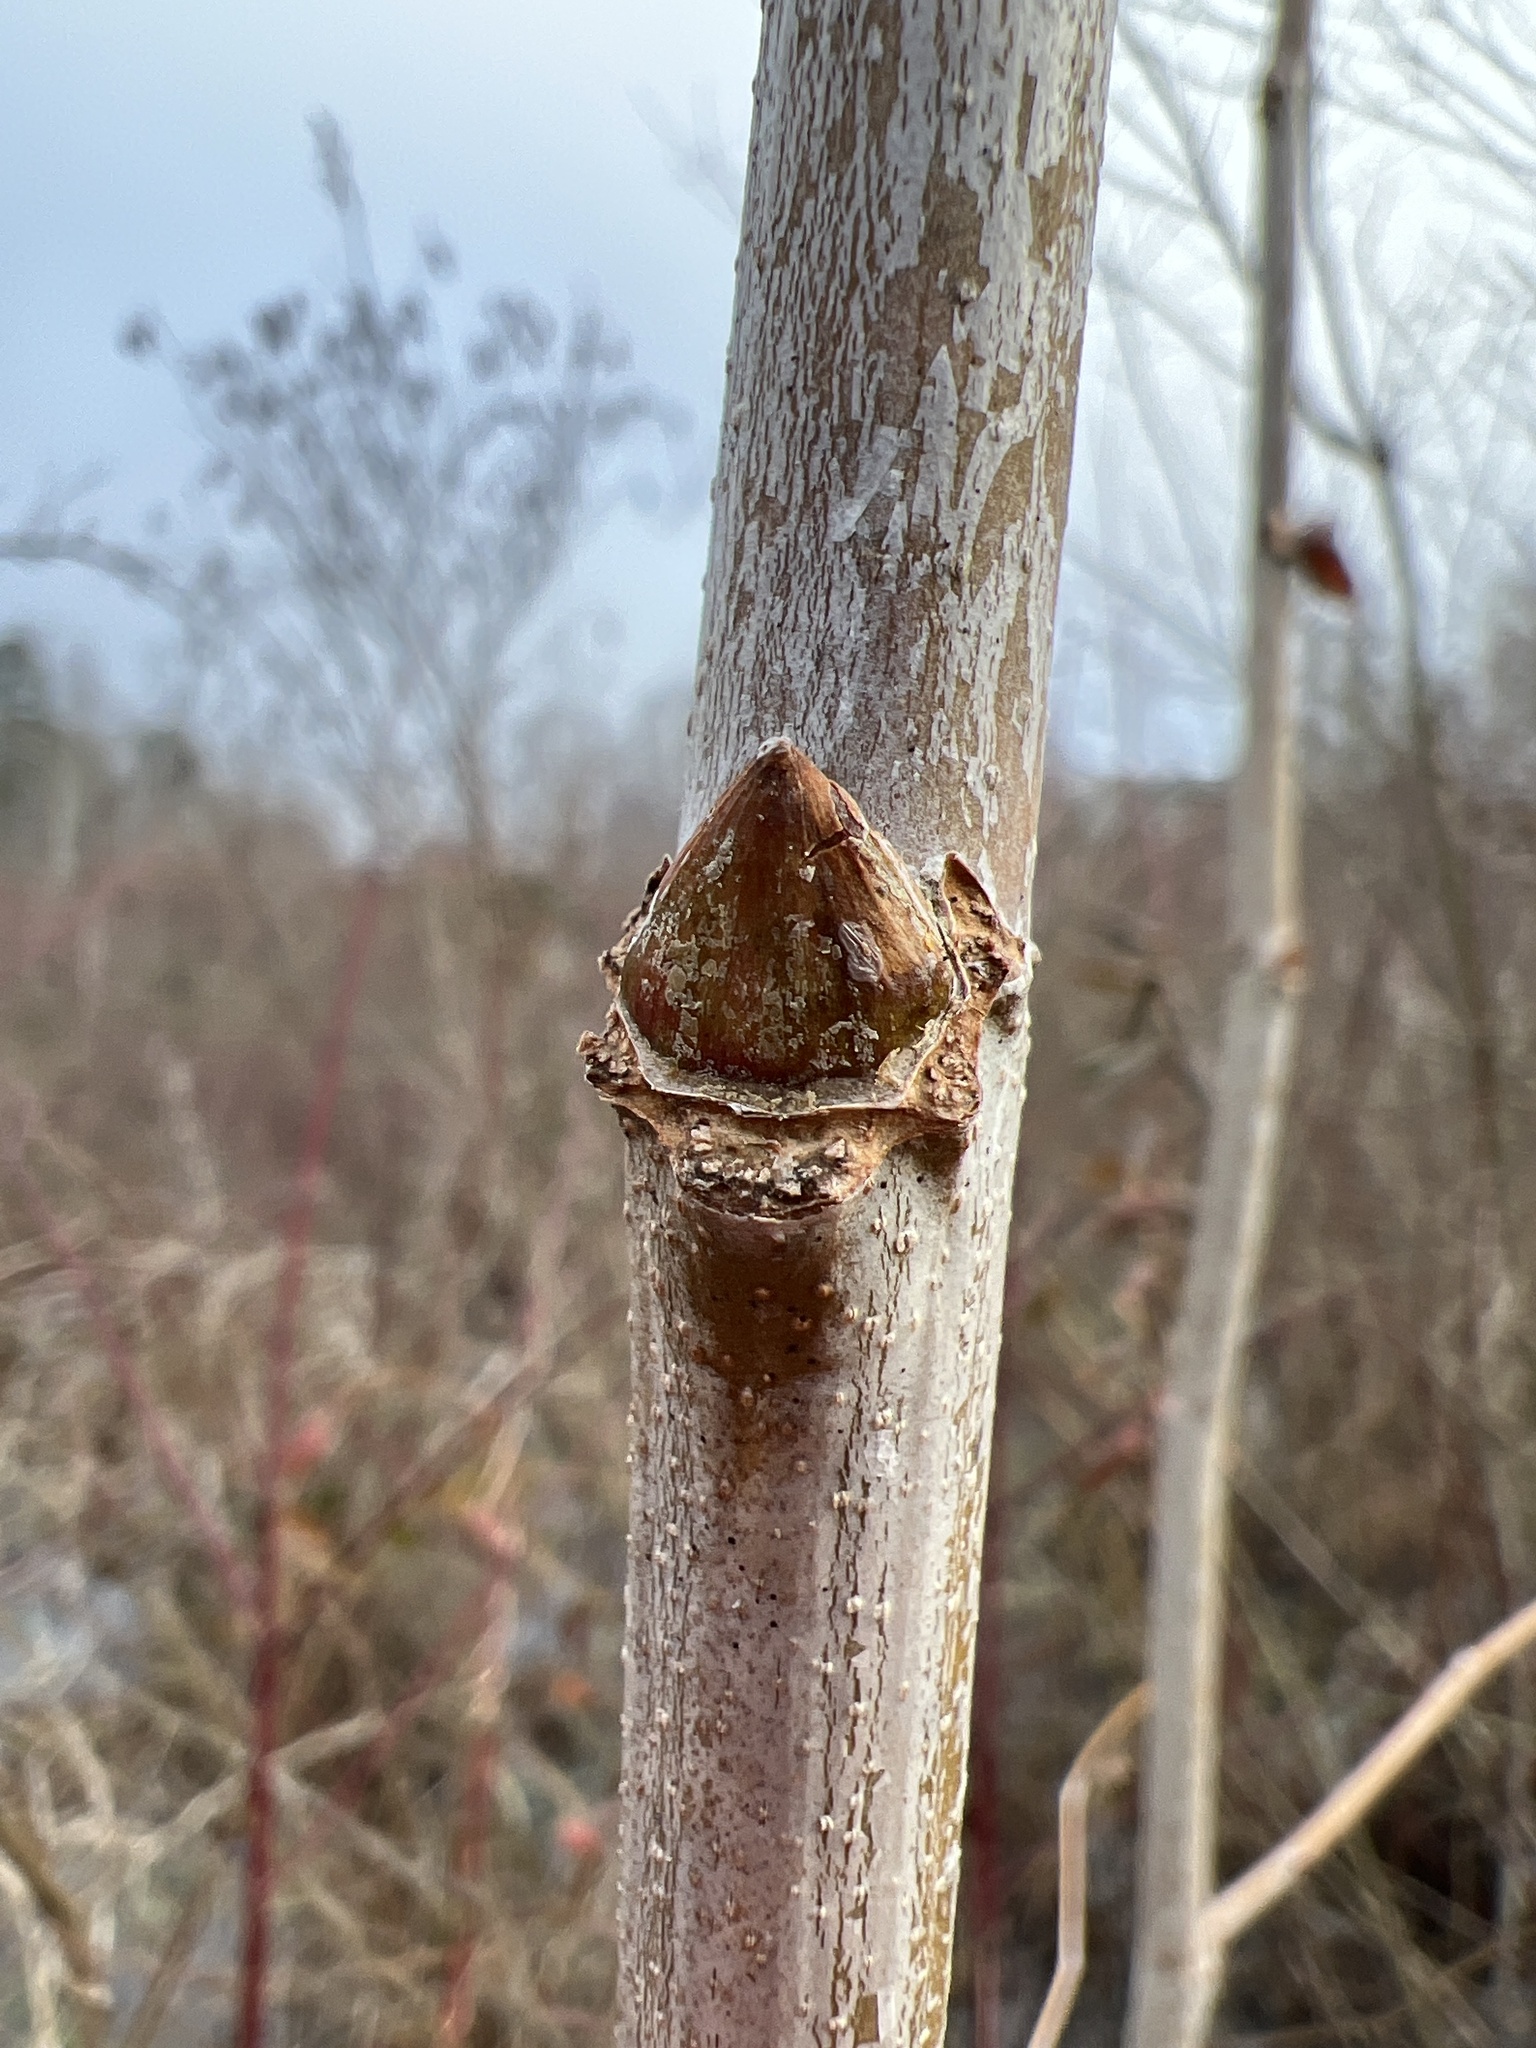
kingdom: Plantae
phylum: Tracheophyta
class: Magnoliopsida
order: Proteales
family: Platanaceae
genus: Platanus
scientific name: Platanus occidentalis
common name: American sycamore
